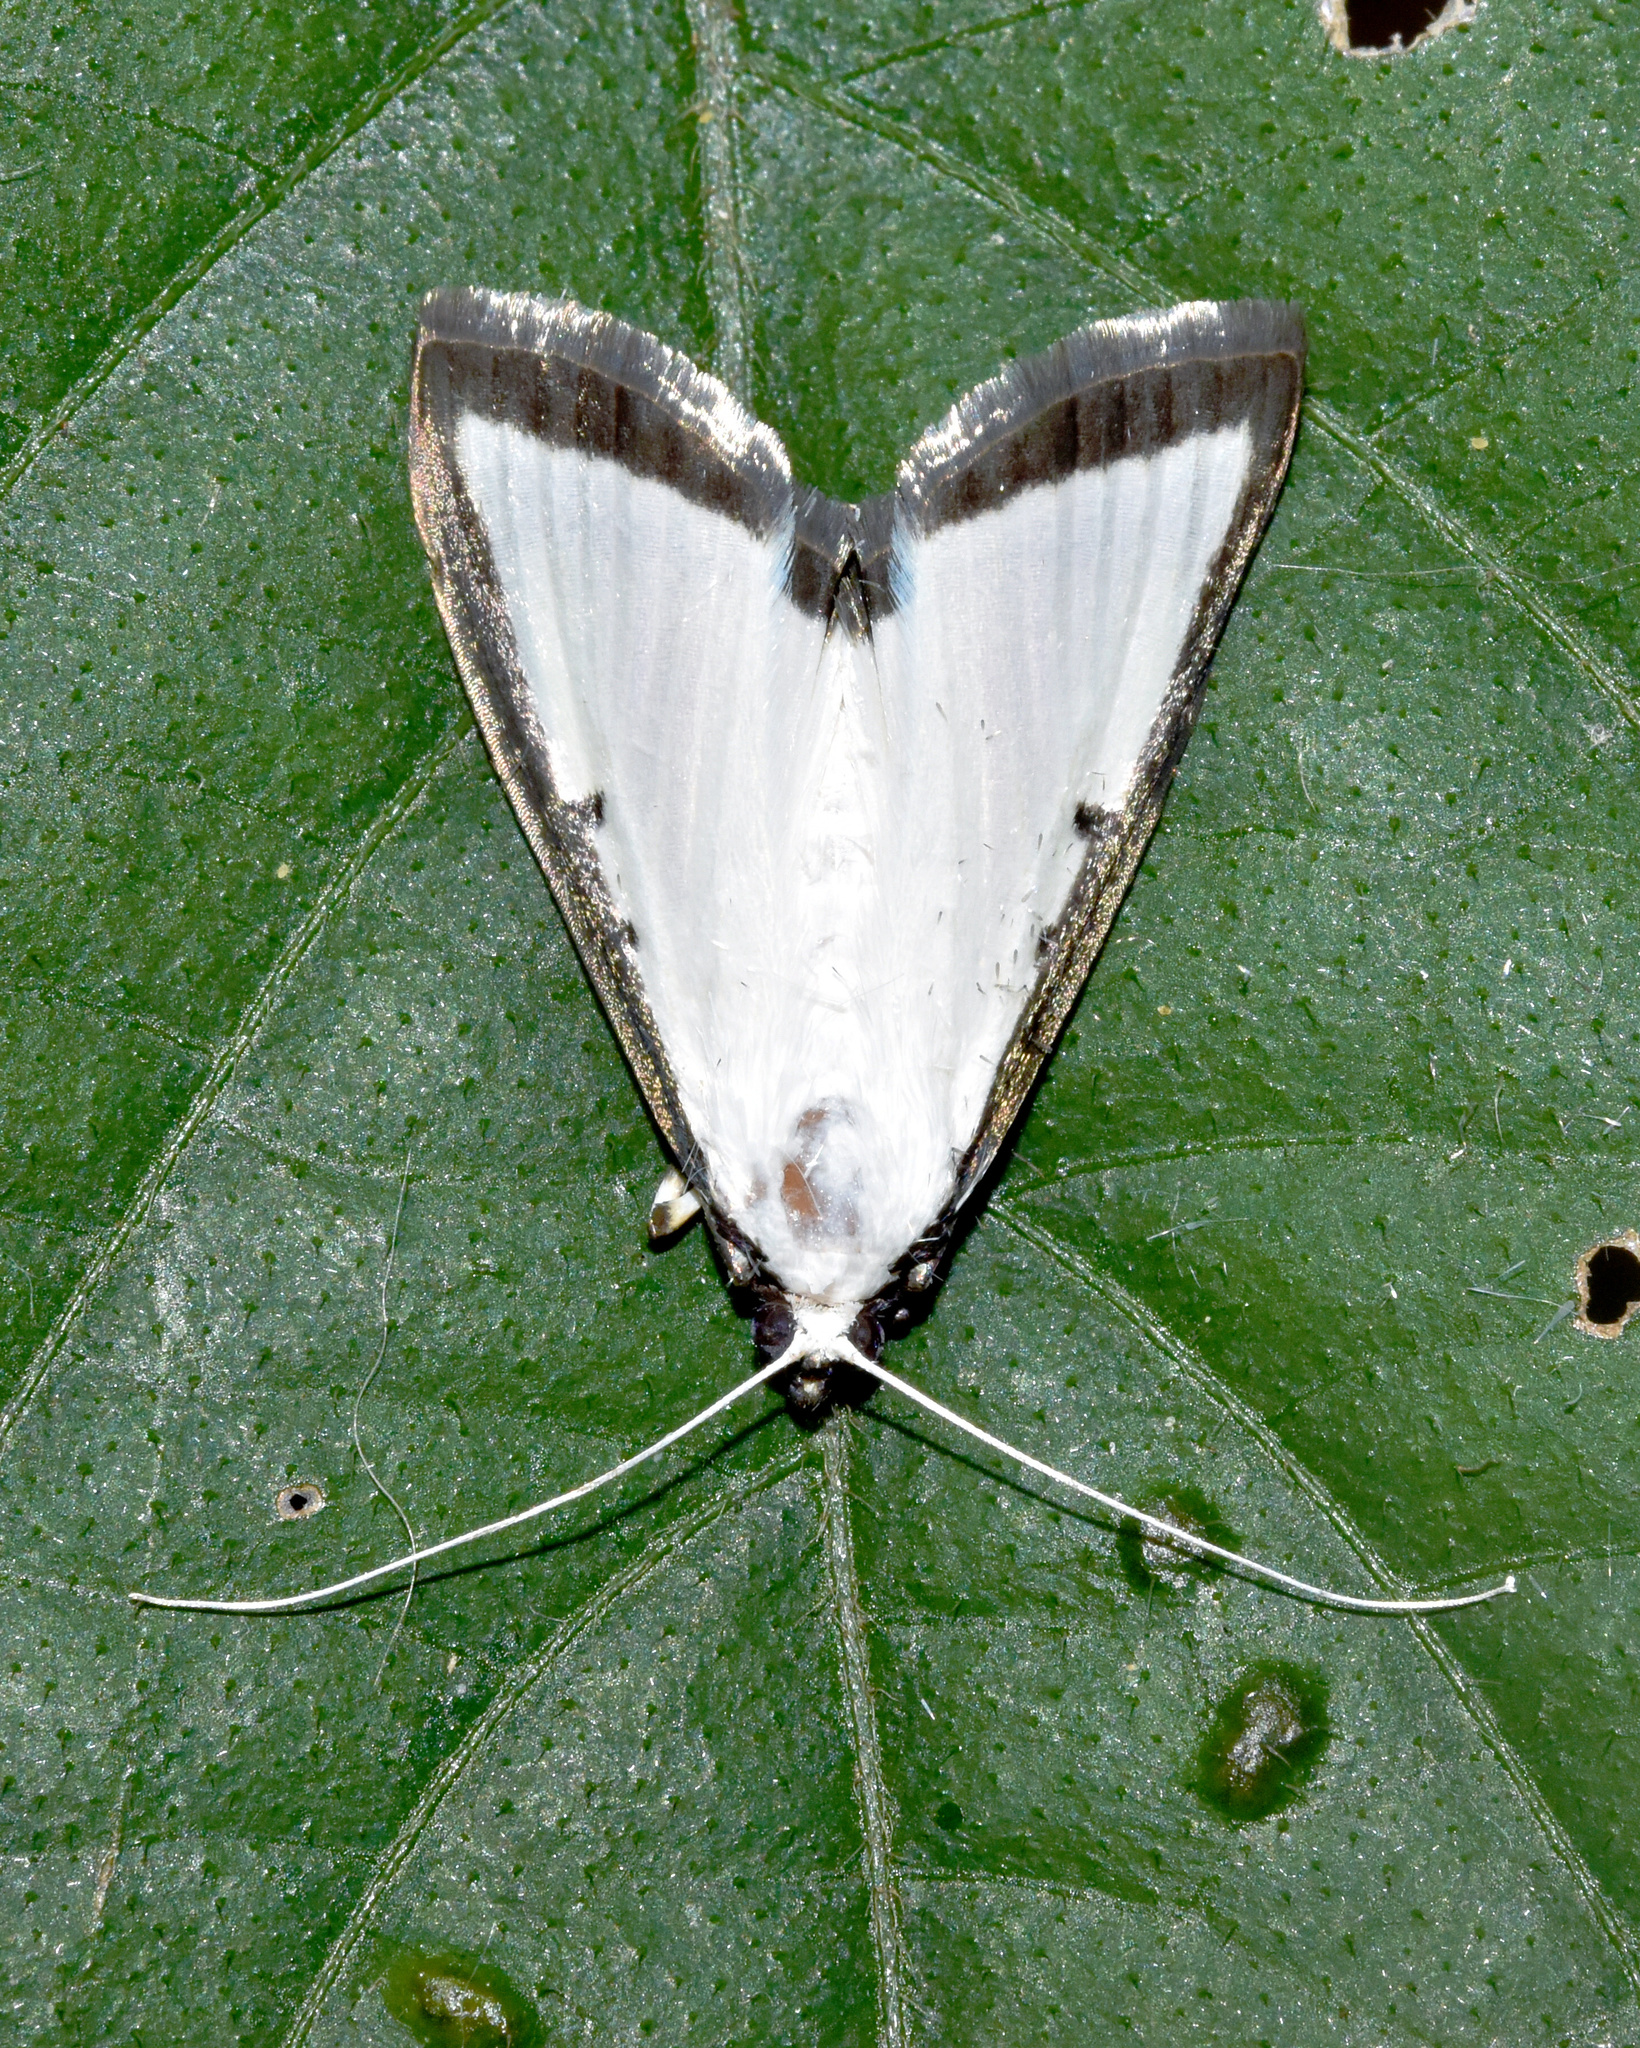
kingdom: Animalia
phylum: Arthropoda
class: Insecta
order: Lepidoptera
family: Crambidae
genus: Cryptographis
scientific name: Cryptographis elealis
